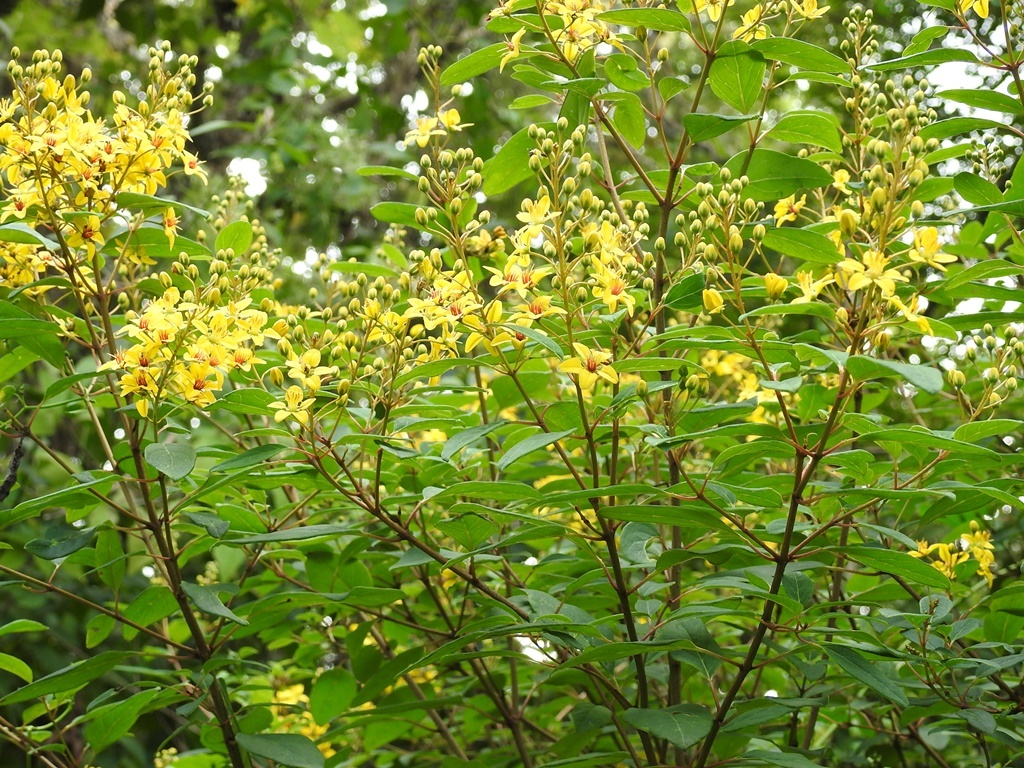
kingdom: Plantae
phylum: Tracheophyta
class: Magnoliopsida
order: Malpighiales
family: Malpighiaceae
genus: Galphimia
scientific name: Galphimia speciosa
